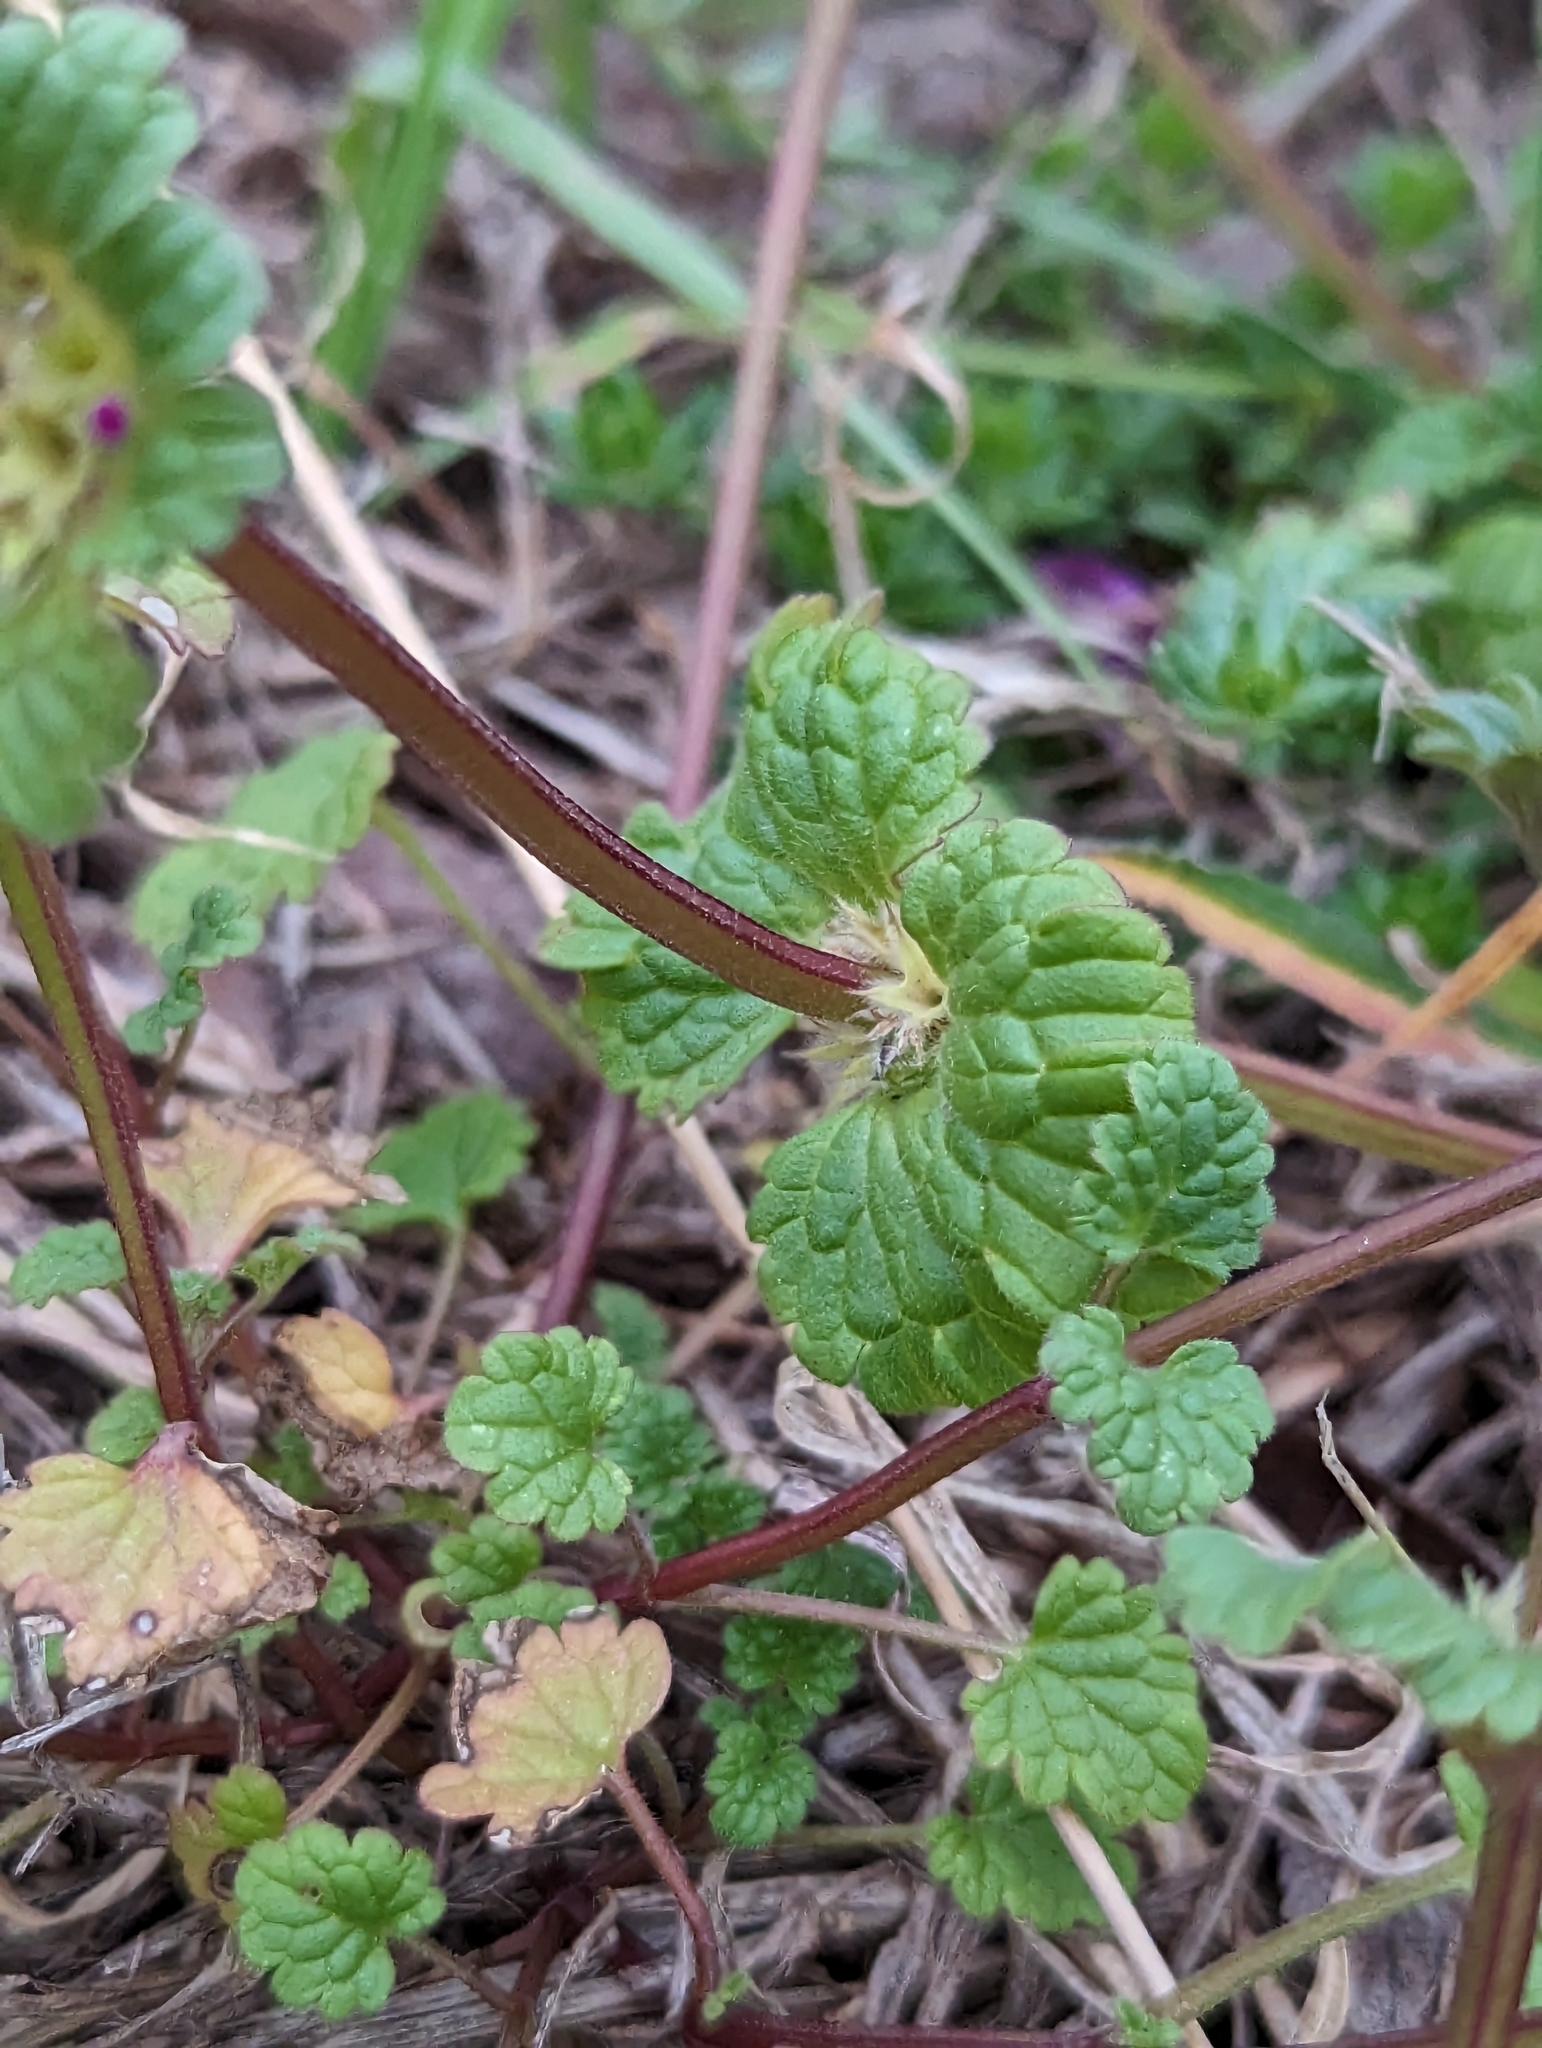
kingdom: Plantae
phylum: Tracheophyta
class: Magnoliopsida
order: Lamiales
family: Lamiaceae
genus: Lamium
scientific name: Lamium amplexicaule
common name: Henbit dead-nettle
